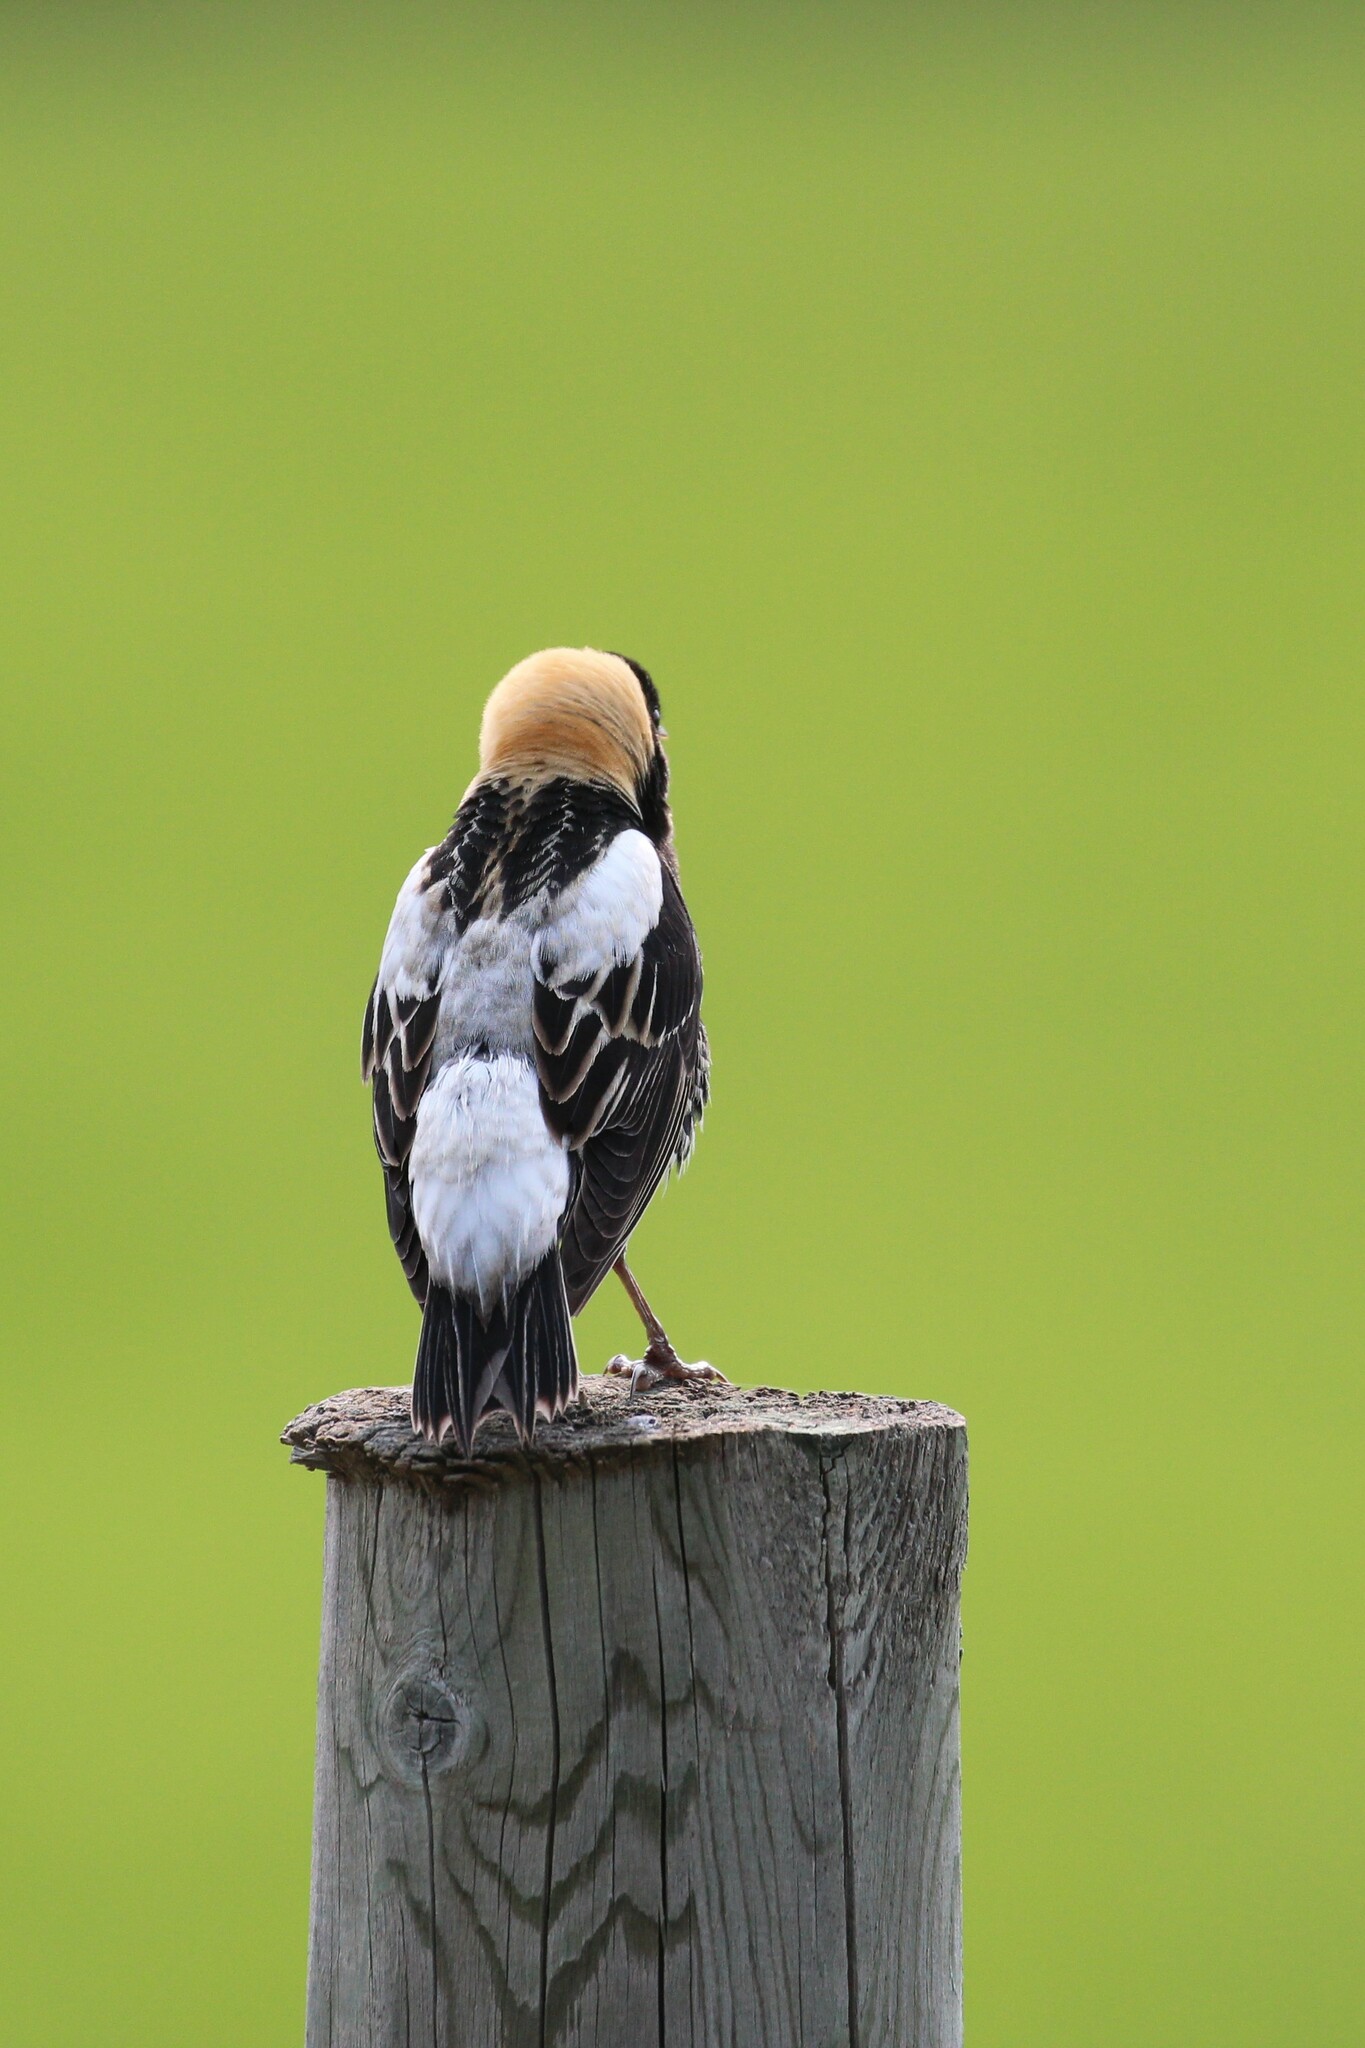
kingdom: Animalia
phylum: Chordata
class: Aves
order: Passeriformes
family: Icteridae
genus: Dolichonyx
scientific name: Dolichonyx oryzivorus
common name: Bobolink
